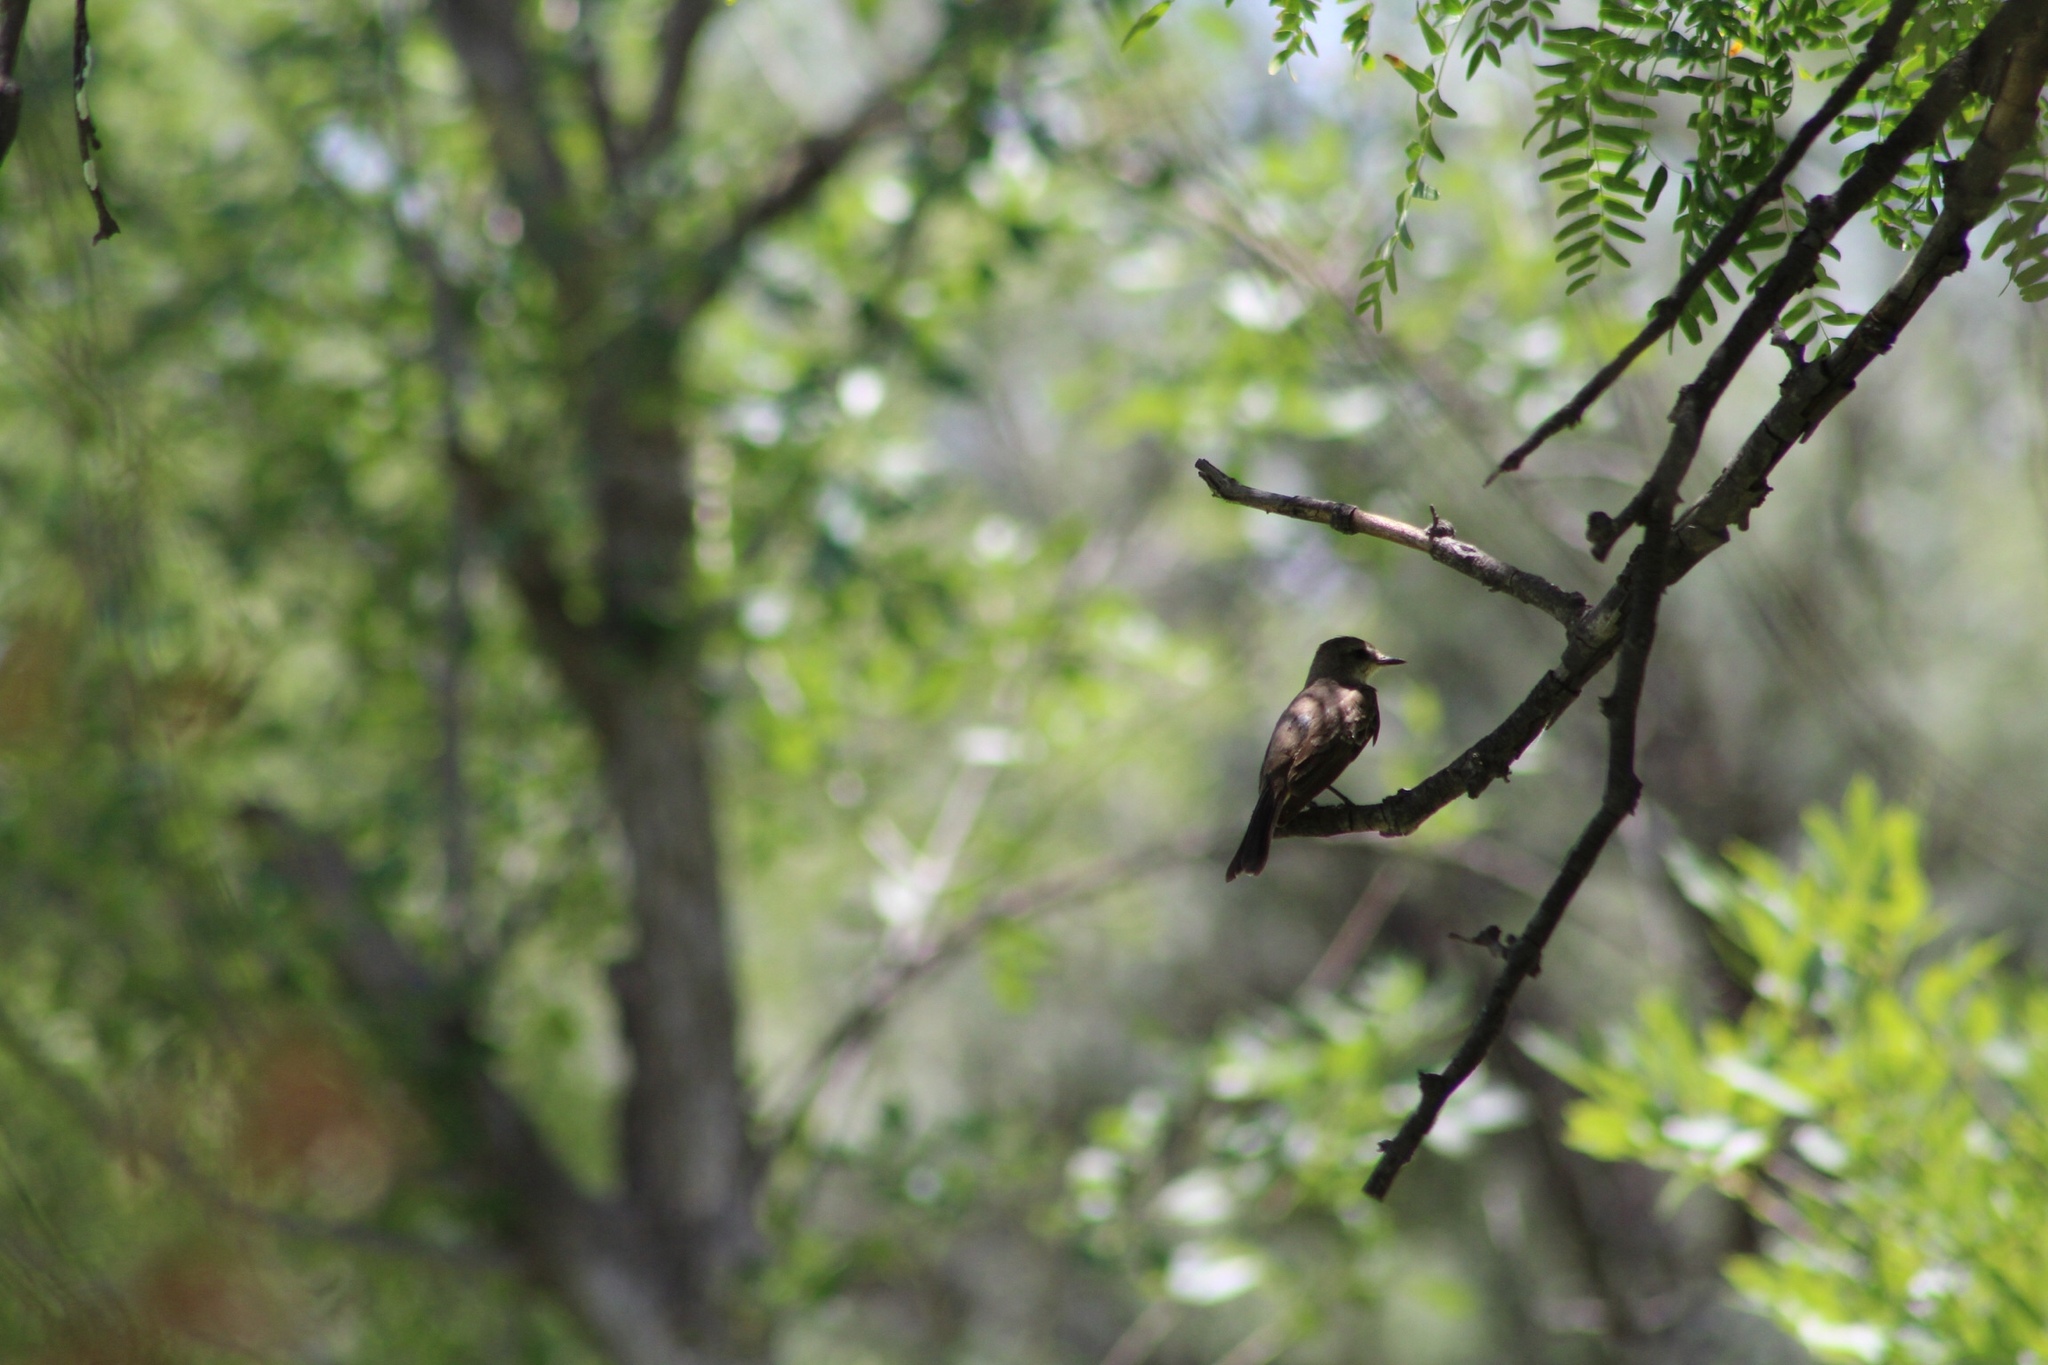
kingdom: Animalia
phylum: Chordata
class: Aves
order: Passeriformes
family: Tyrannidae
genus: Pyrocephalus
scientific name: Pyrocephalus rubinus
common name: Vermilion flycatcher
